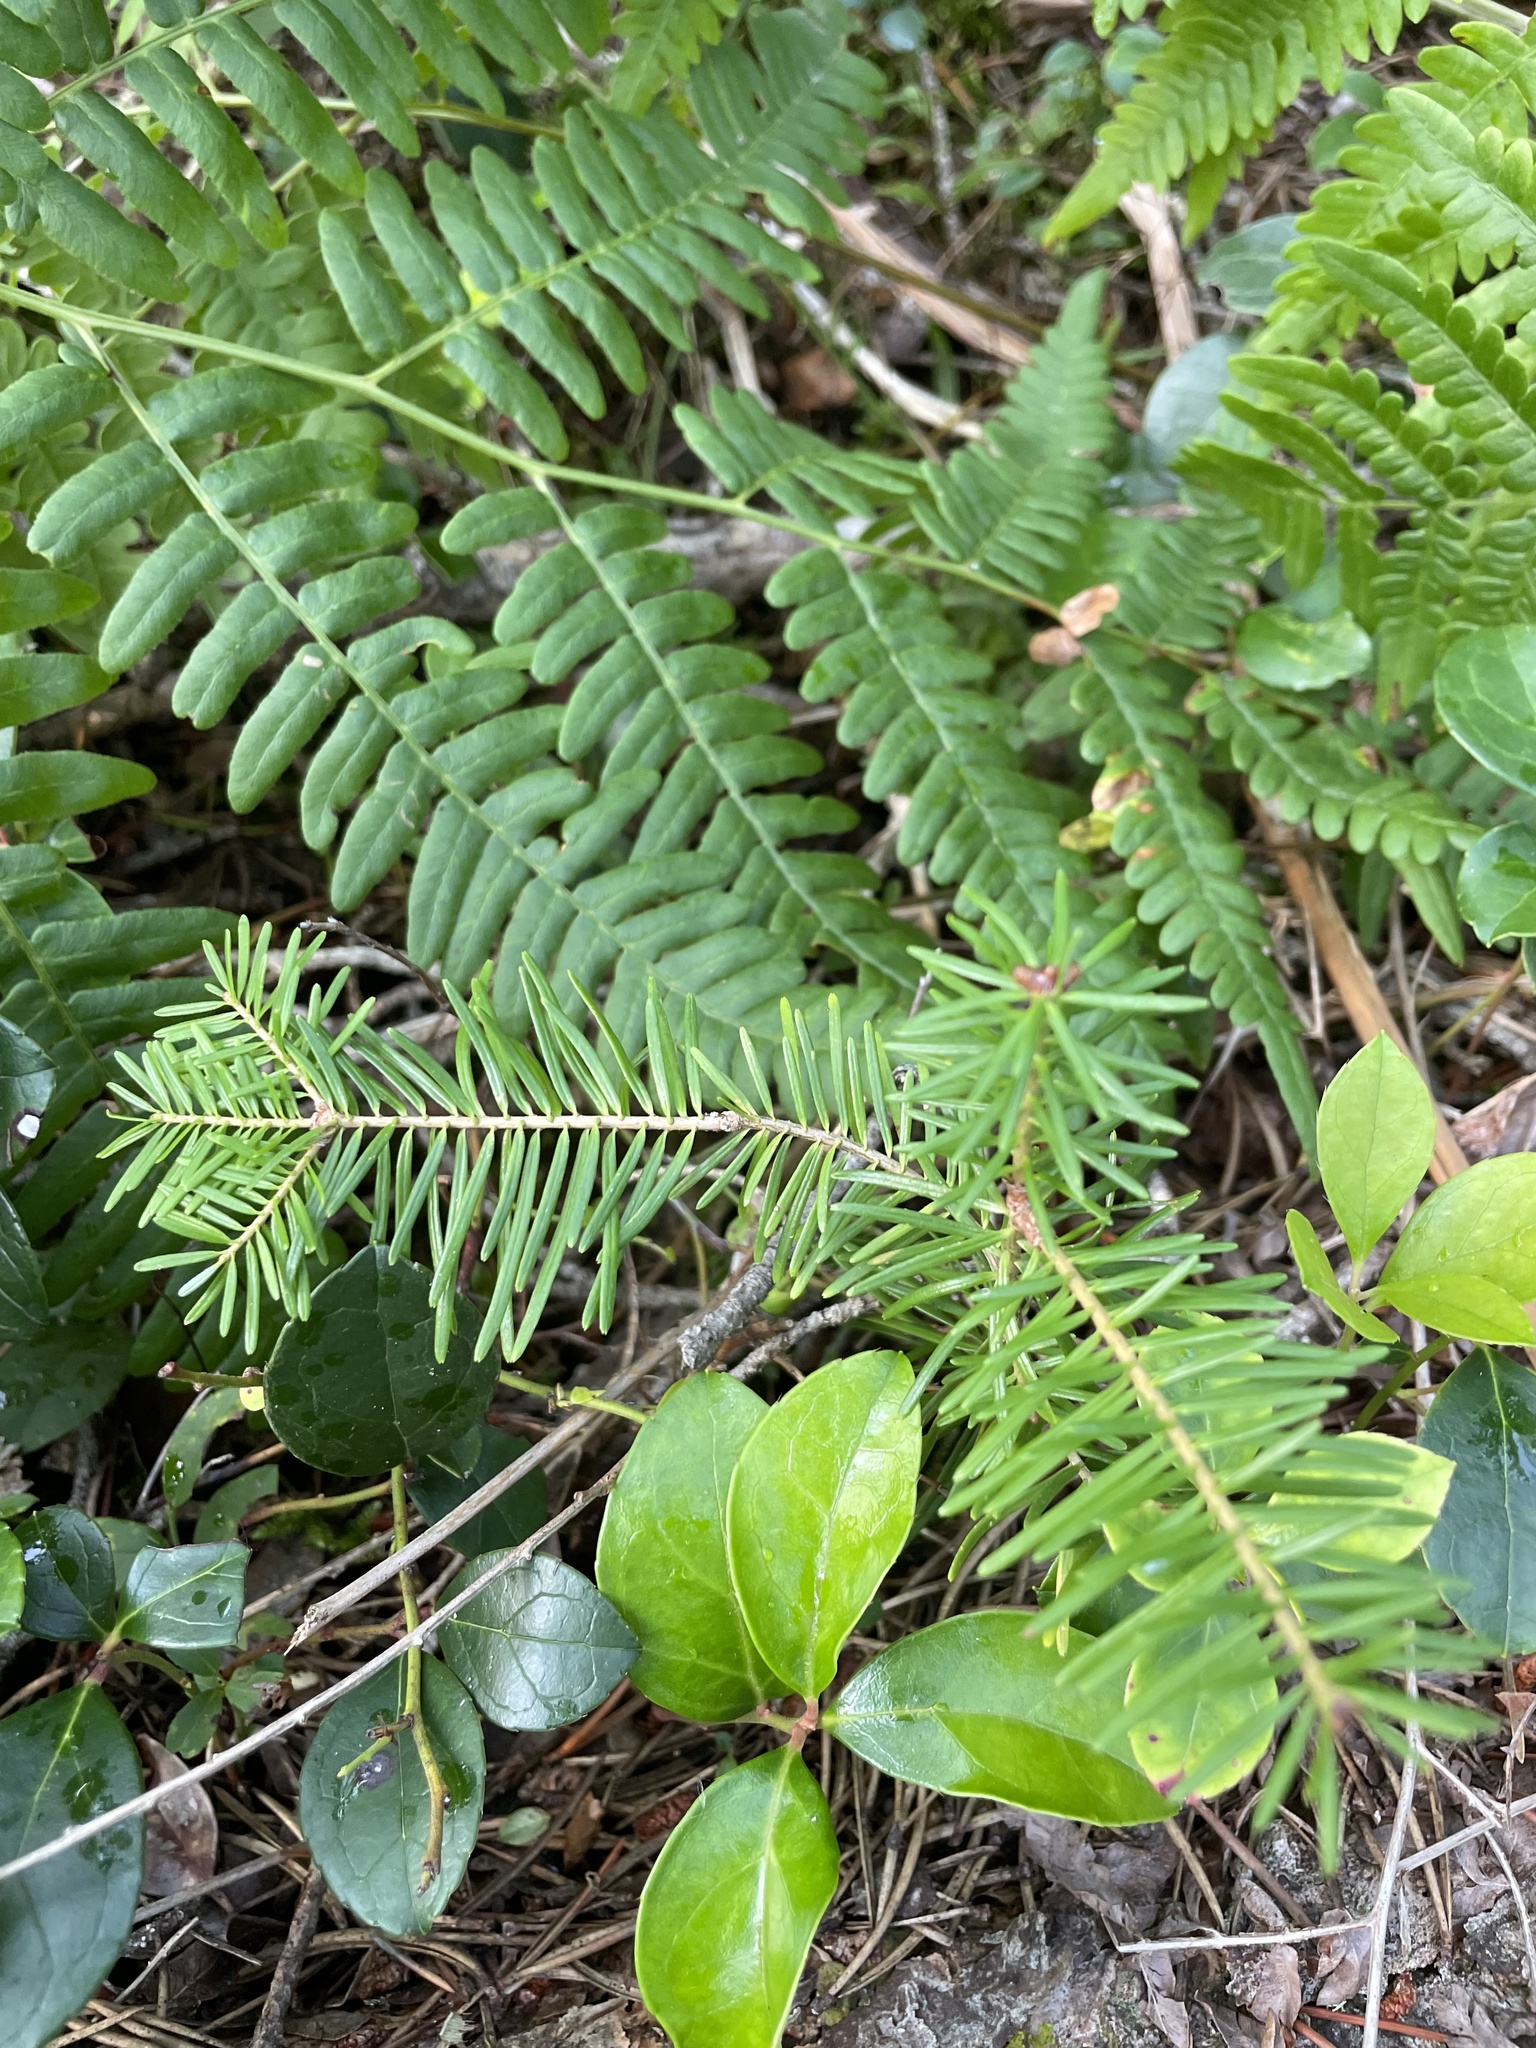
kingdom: Plantae
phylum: Tracheophyta
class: Pinopsida
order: Pinales
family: Pinaceae
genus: Abies
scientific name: Abies balsamea
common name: Balsam fir
